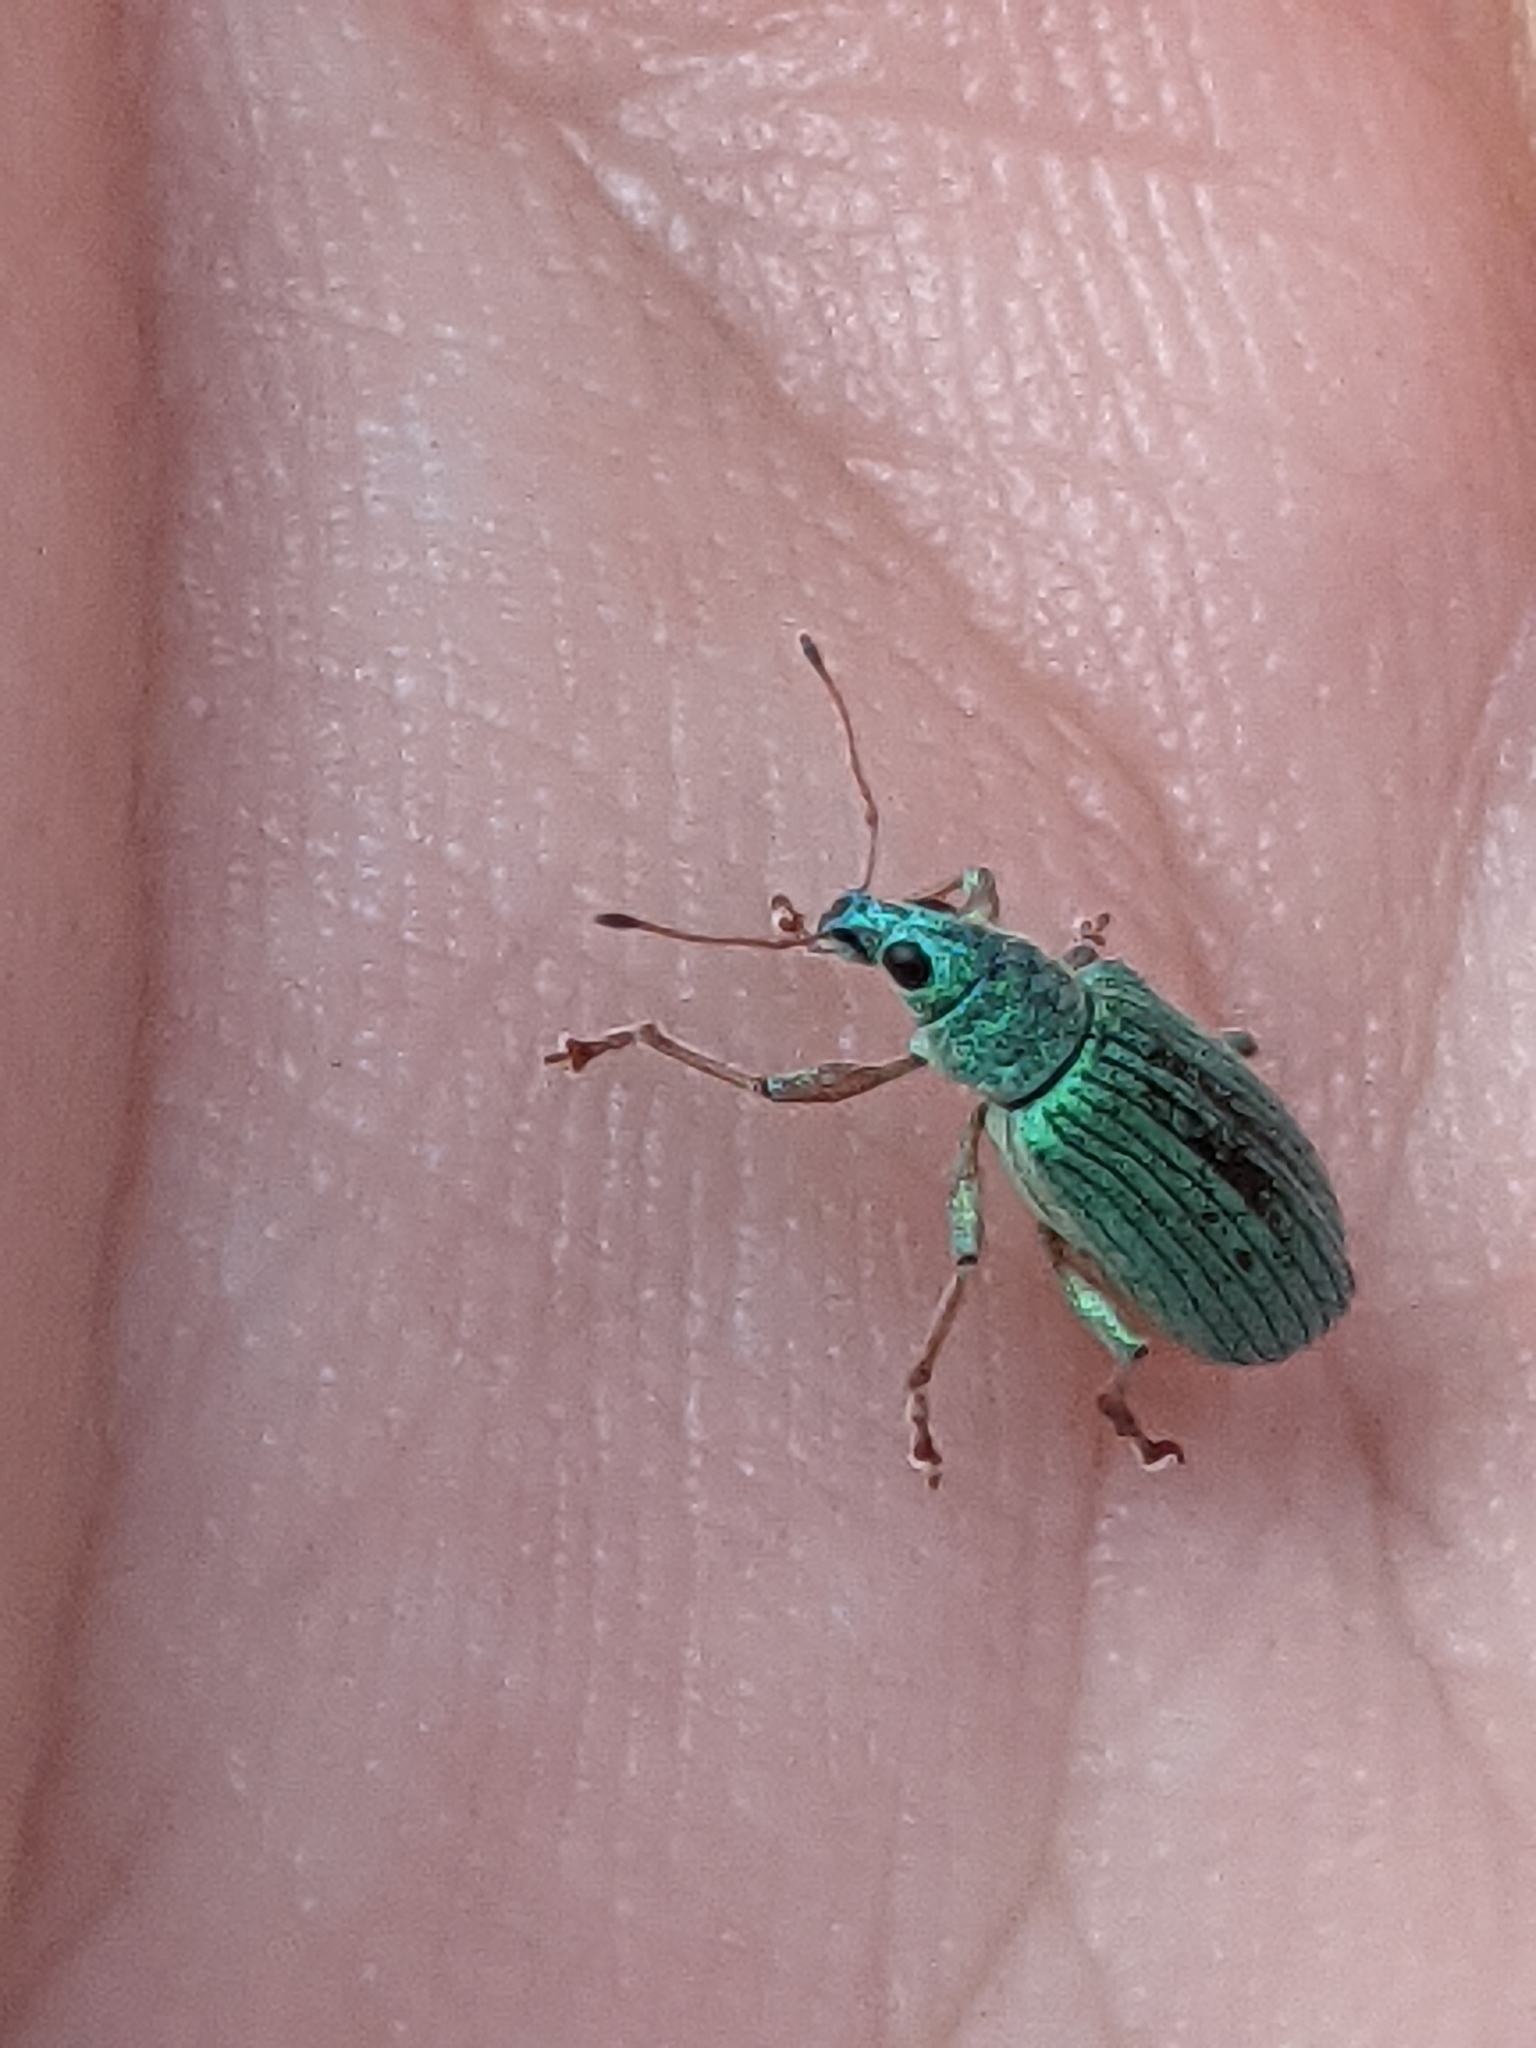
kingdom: Animalia
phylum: Arthropoda
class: Insecta
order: Coleoptera
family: Curculionidae
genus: Polydrusus
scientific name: Polydrusus formosus
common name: Weevil
